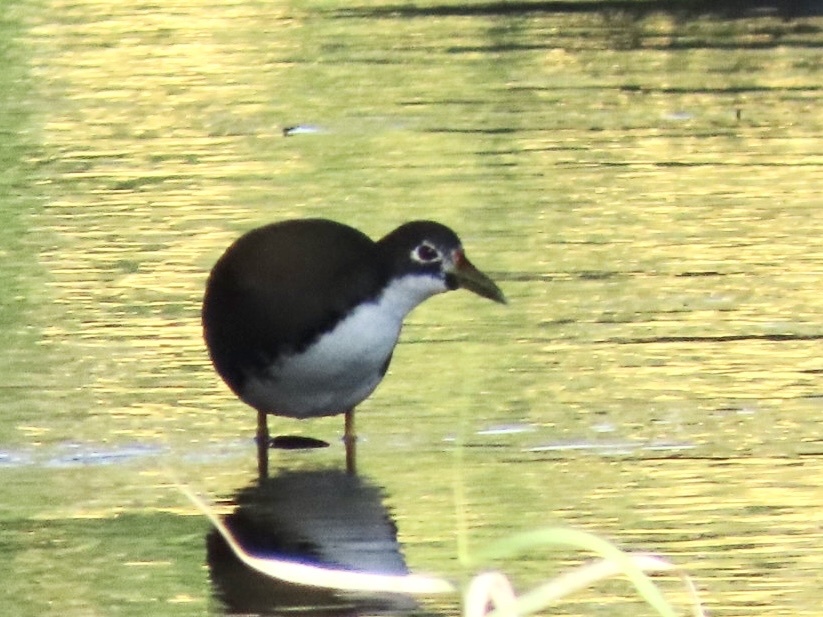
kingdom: Animalia
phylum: Chordata
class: Aves
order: Gruiformes
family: Rallidae
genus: Amaurornis
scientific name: Amaurornis phoenicurus
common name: White-breasted waterhen
